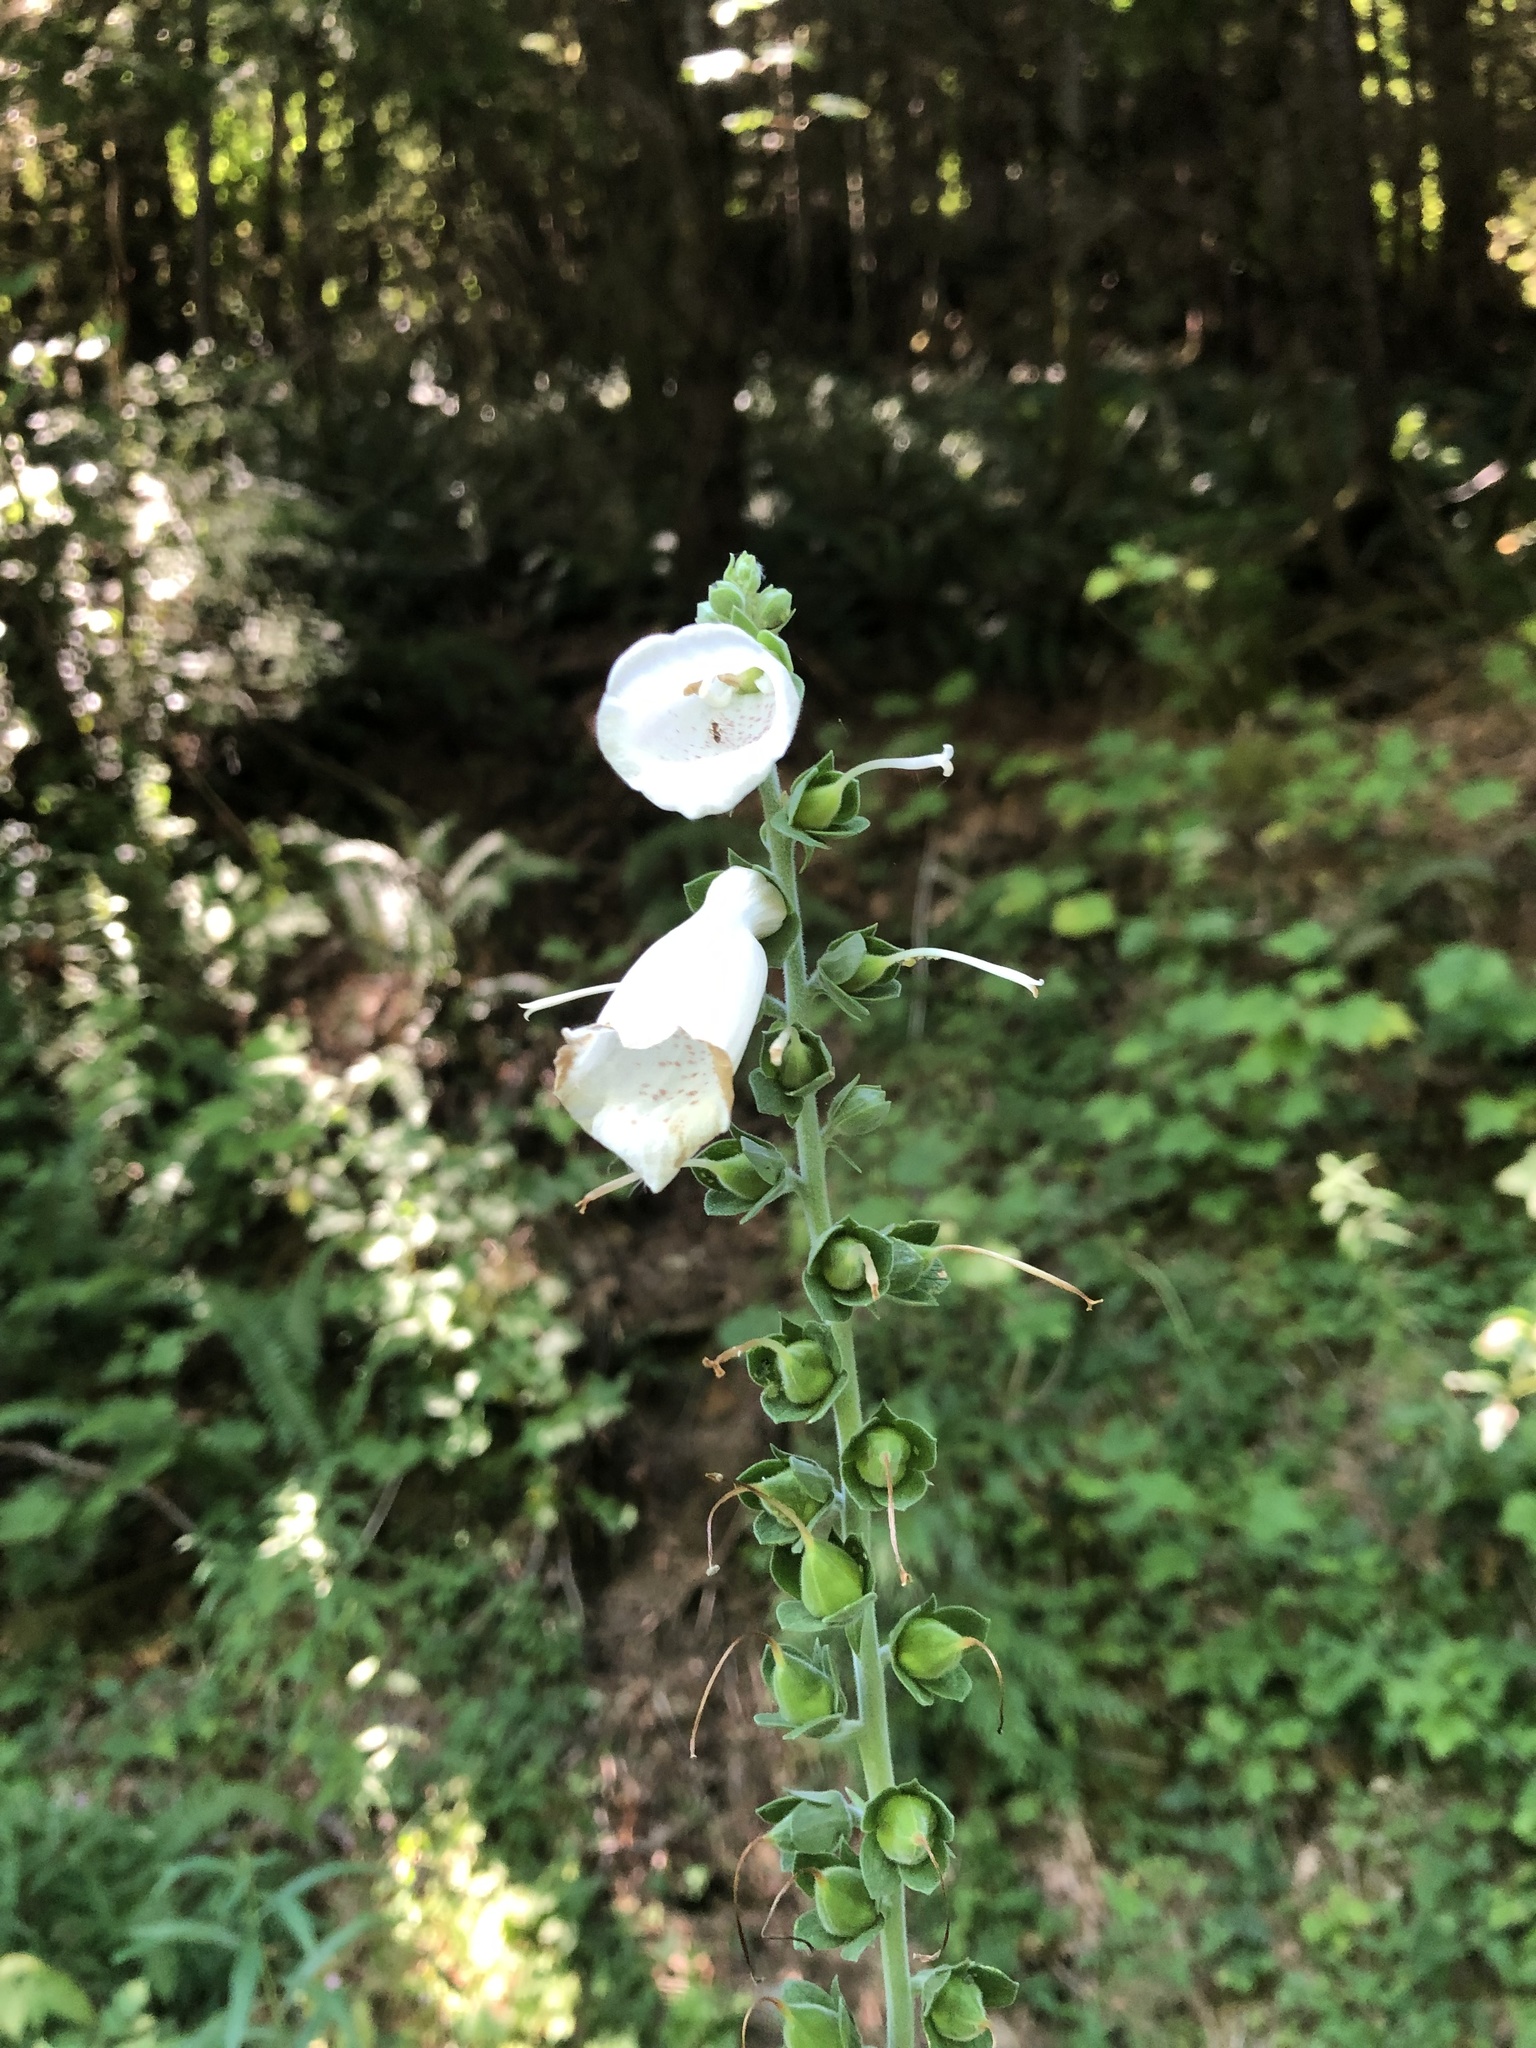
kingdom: Plantae
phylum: Tracheophyta
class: Magnoliopsida
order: Lamiales
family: Plantaginaceae
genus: Digitalis
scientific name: Digitalis purpurea
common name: Foxglove
